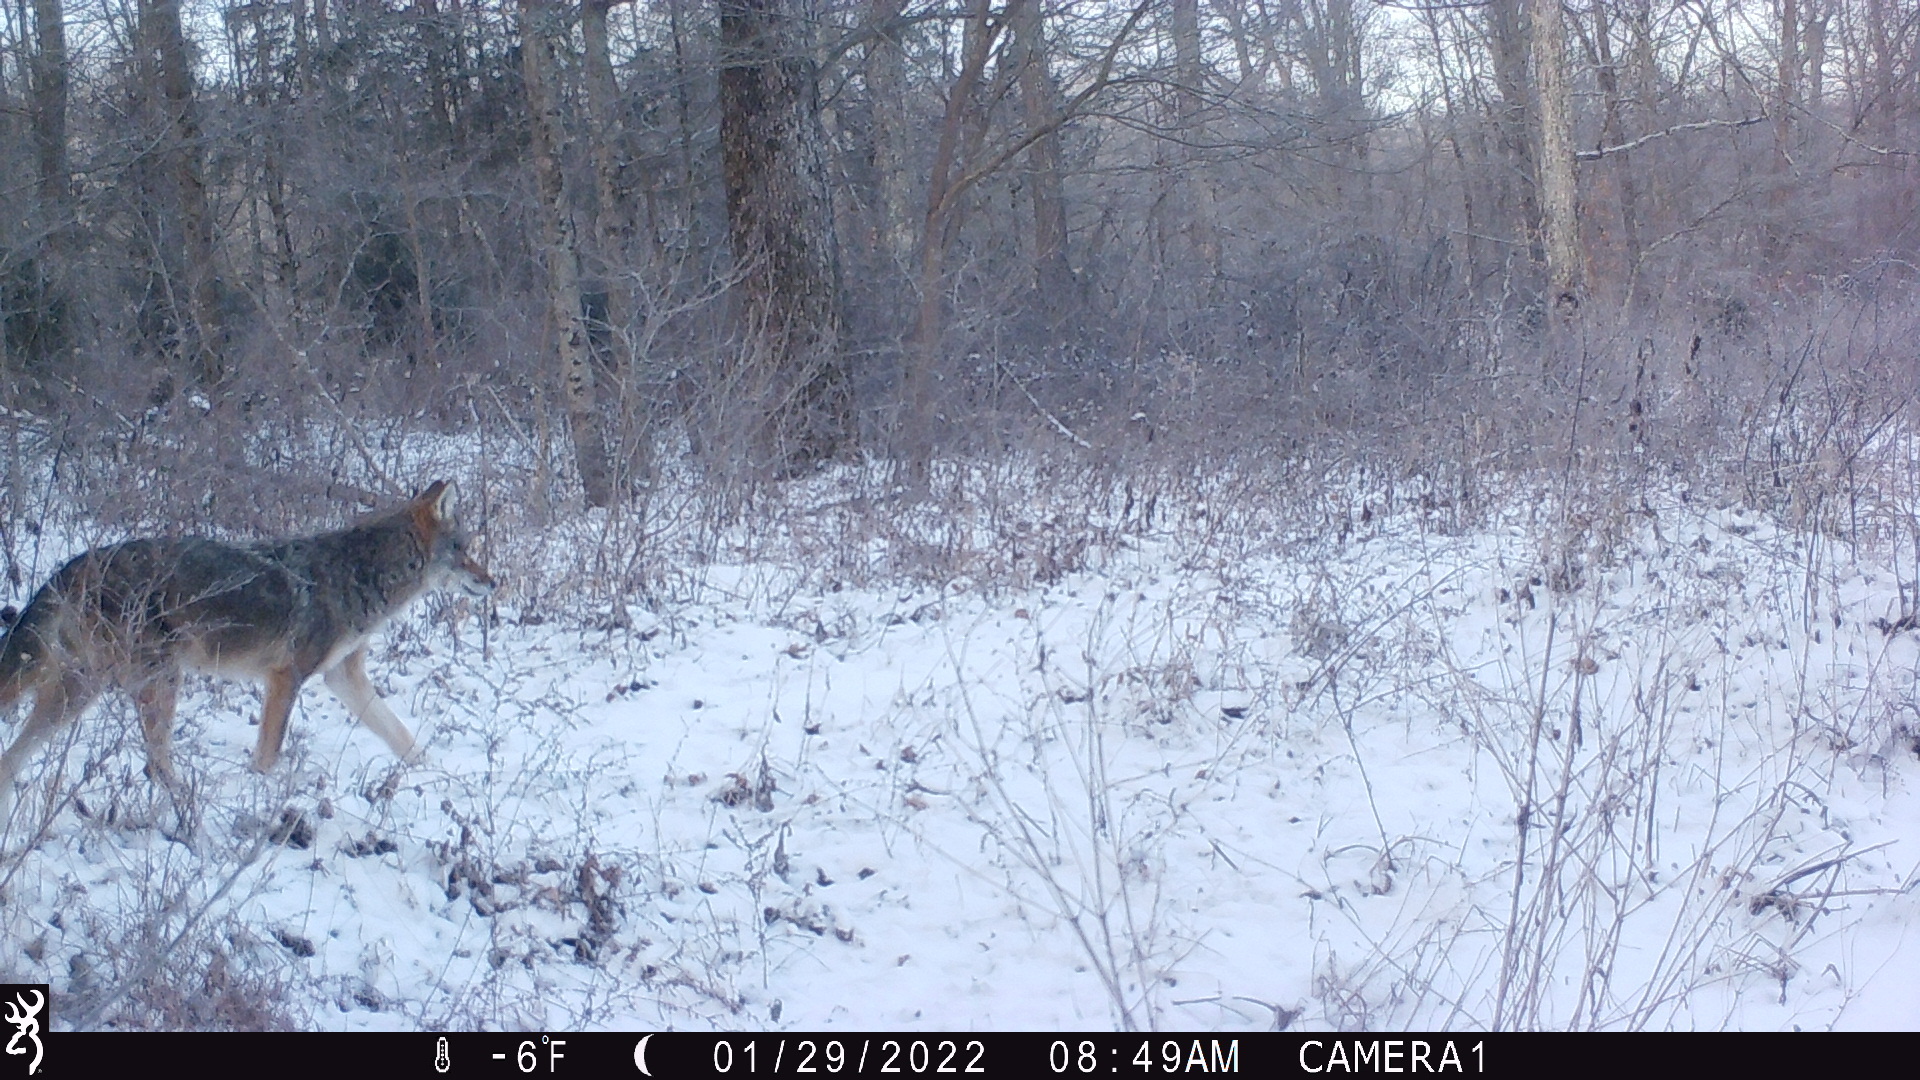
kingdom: Animalia
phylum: Chordata
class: Mammalia
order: Carnivora
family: Canidae
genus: Canis
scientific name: Canis latrans
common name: Coyote
